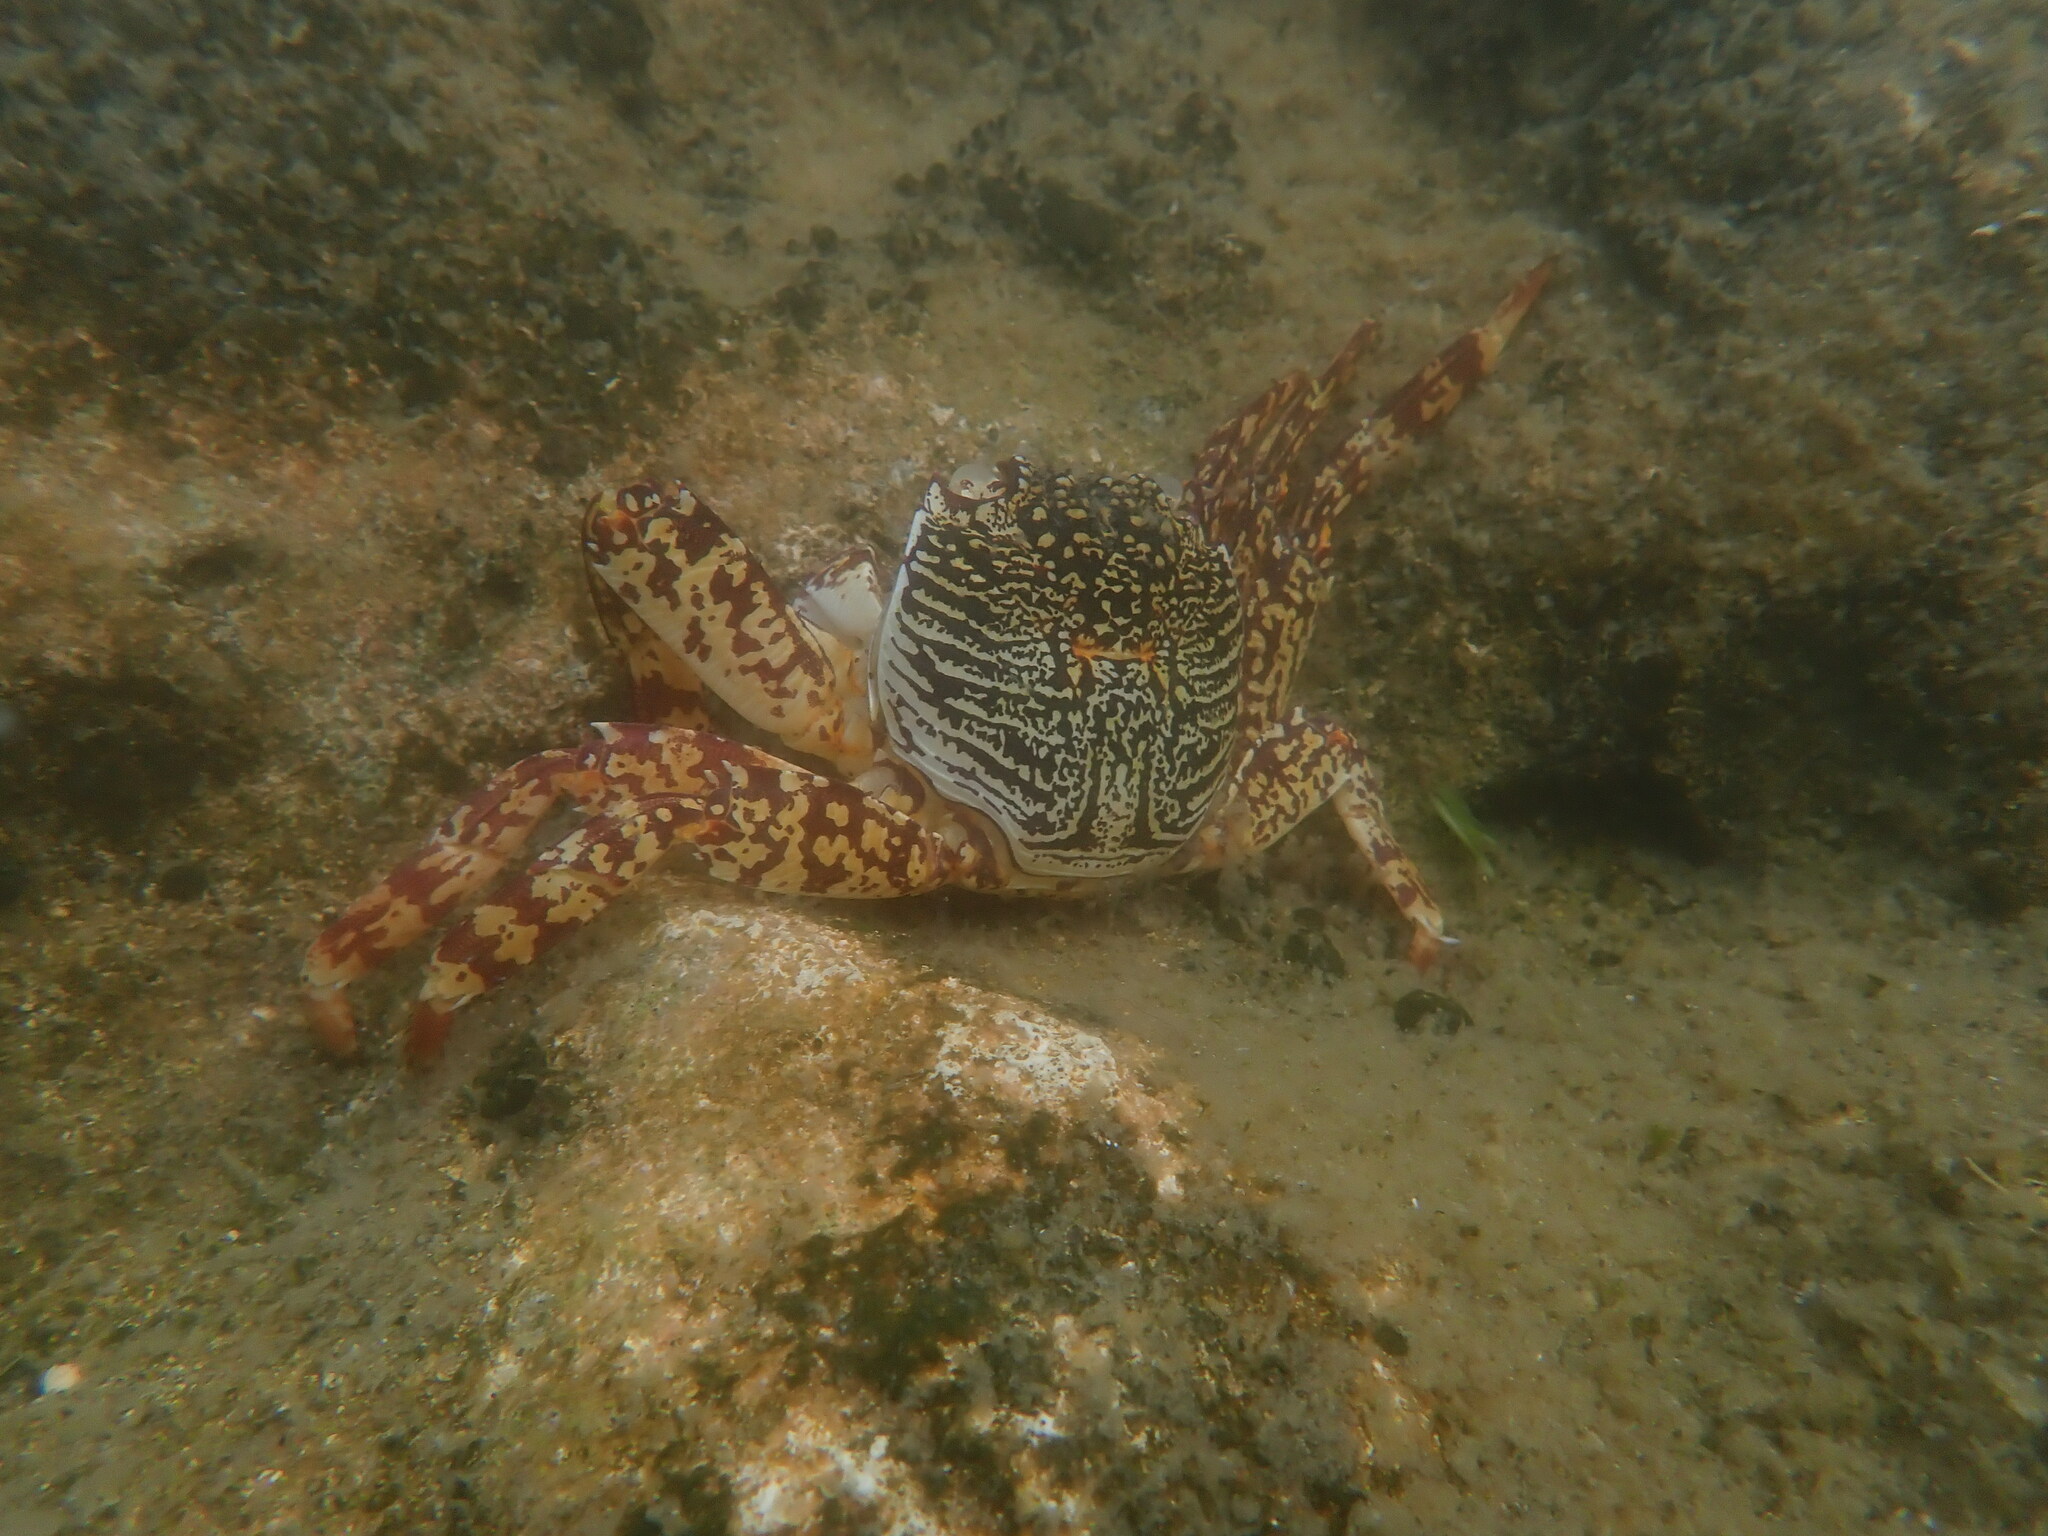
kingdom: Animalia
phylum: Arthropoda
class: Malacostraca
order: Decapoda
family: Grapsidae
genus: Grapsus
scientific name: Grapsus albolineatus
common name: Mottled lightfoot crab
